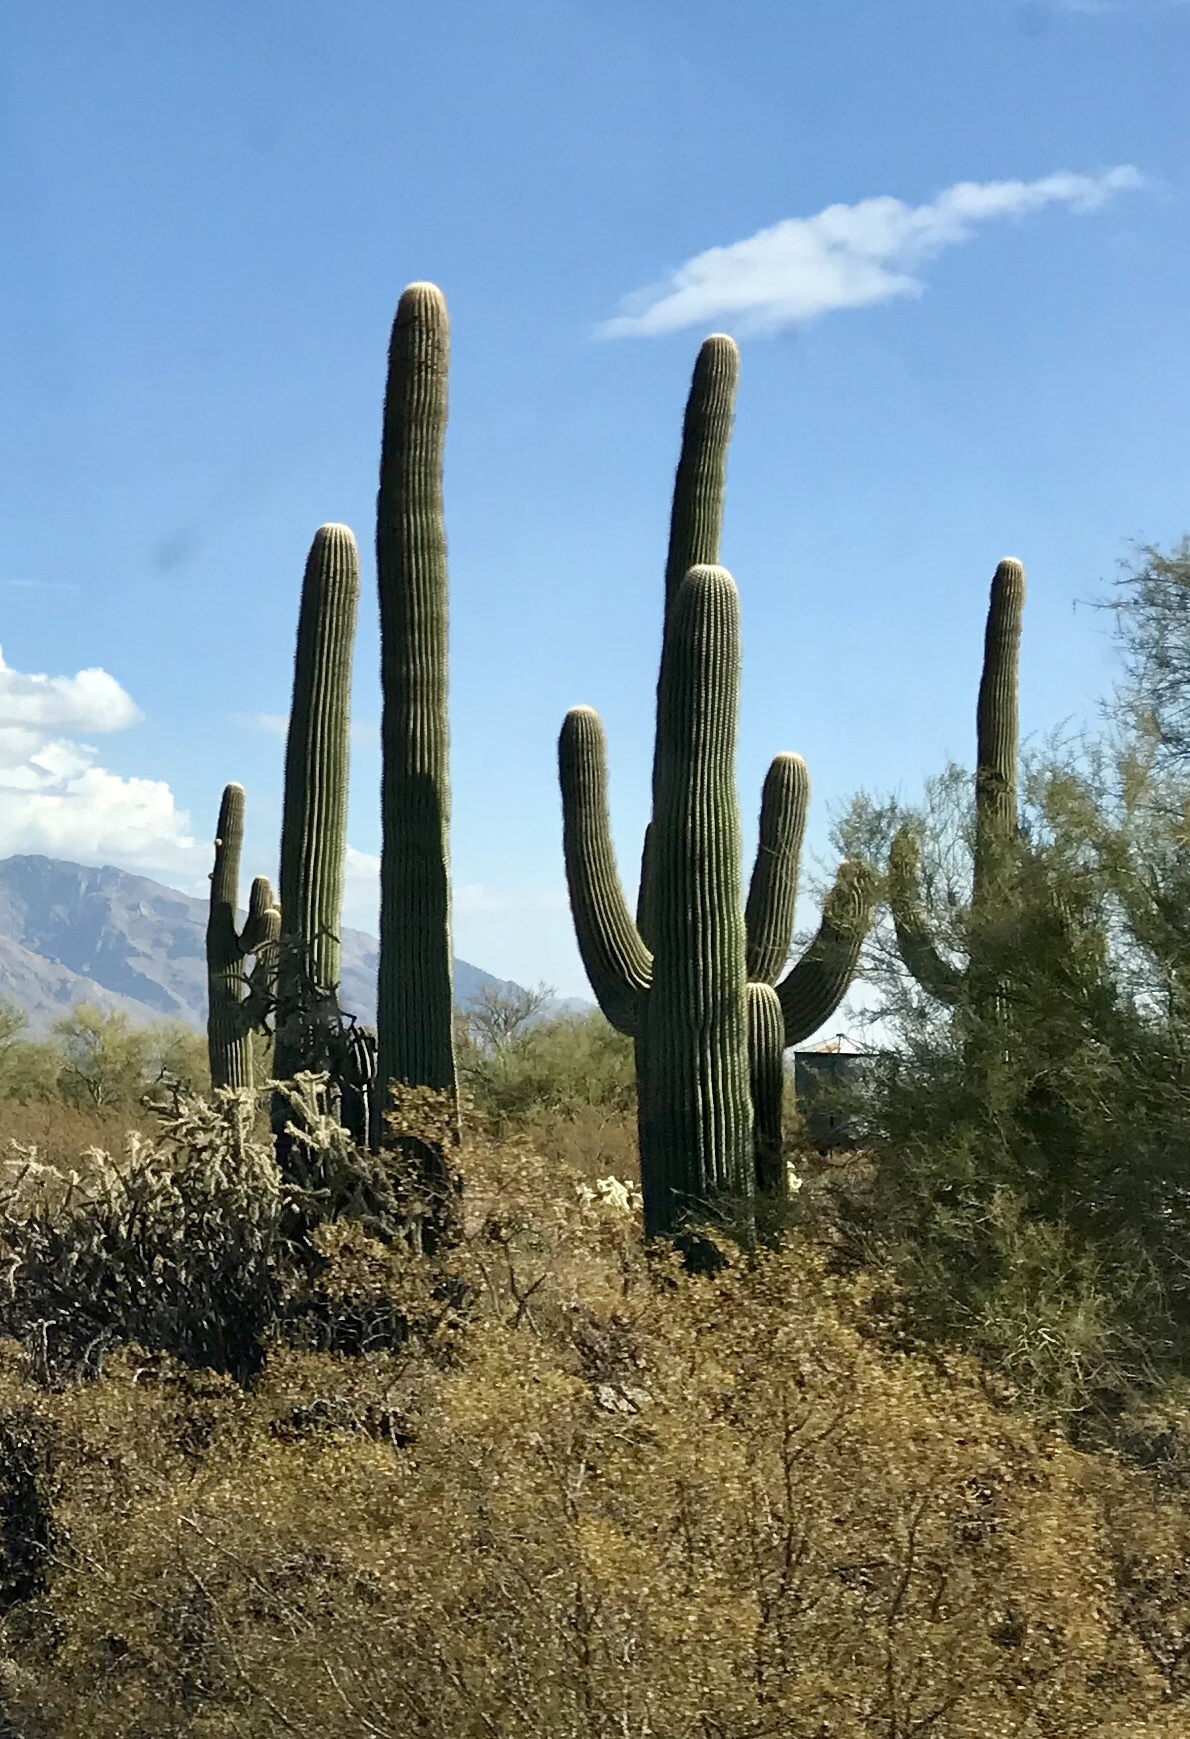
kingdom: Plantae
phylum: Tracheophyta
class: Magnoliopsida
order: Caryophyllales
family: Cactaceae
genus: Carnegiea
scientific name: Carnegiea gigantea
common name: Saguaro
